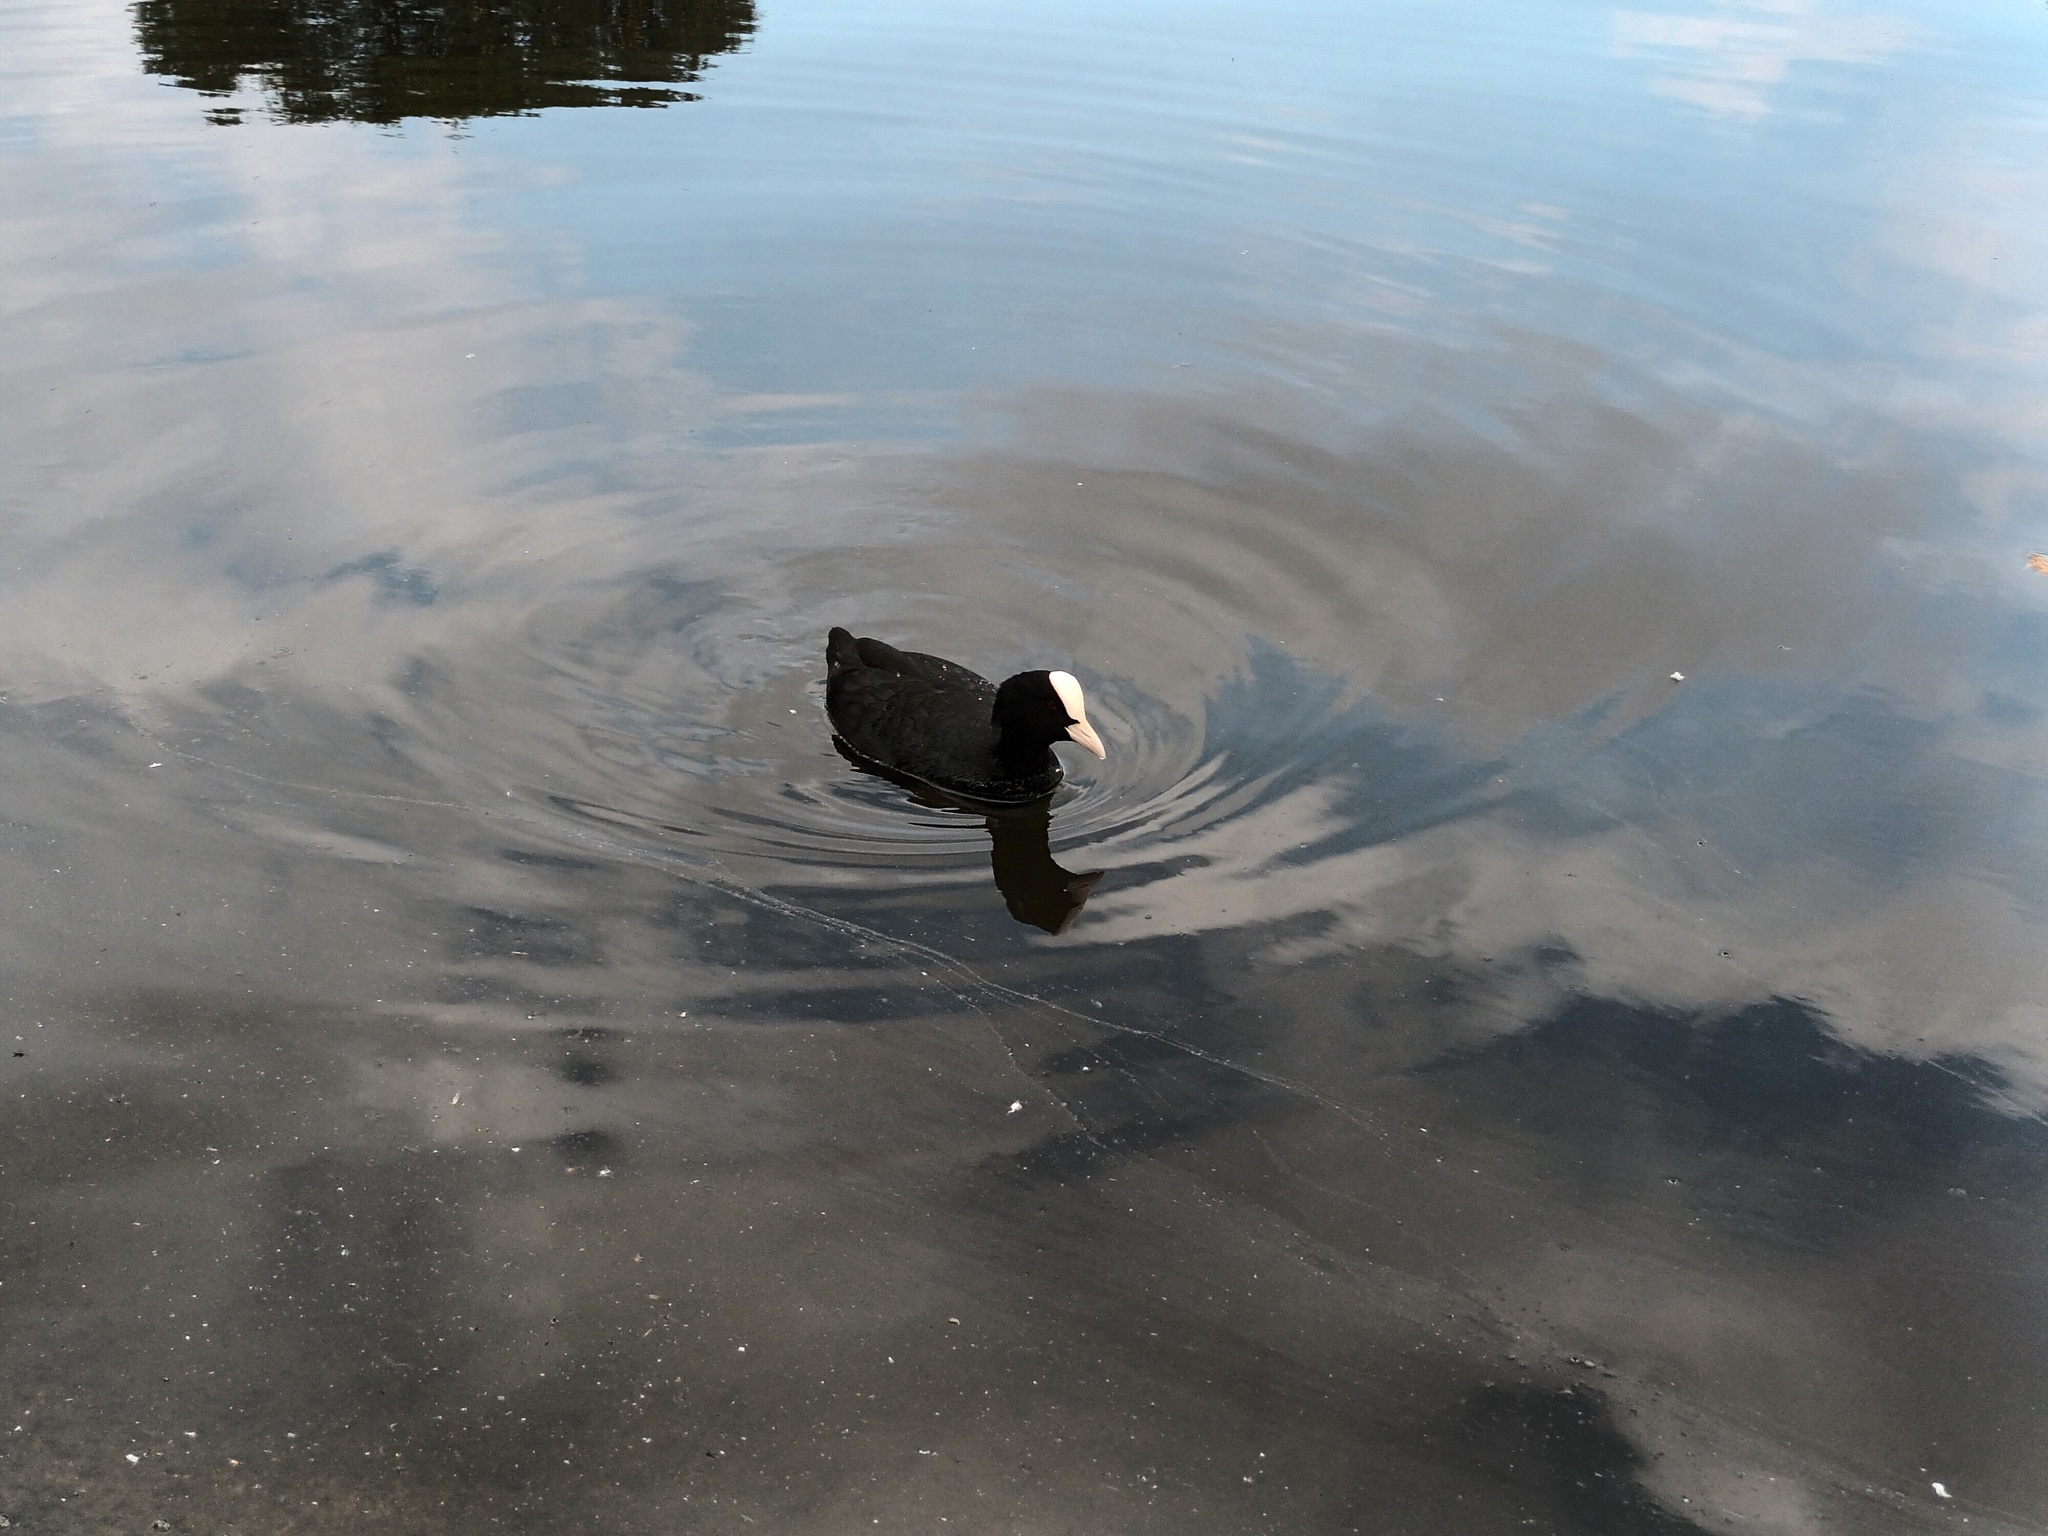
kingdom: Animalia
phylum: Chordata
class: Aves
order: Gruiformes
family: Rallidae
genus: Fulica
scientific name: Fulica atra
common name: Eurasian coot
